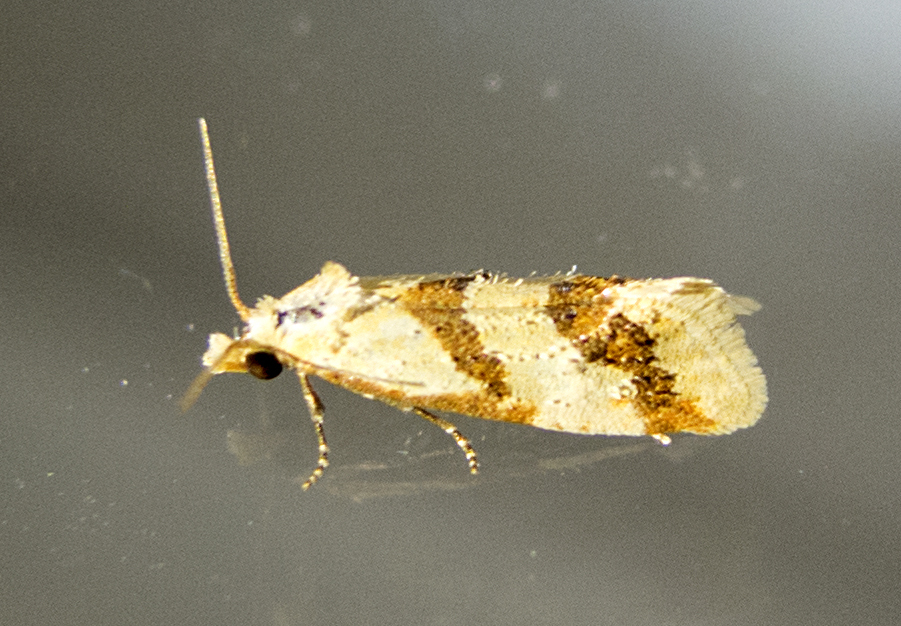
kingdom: Animalia
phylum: Arthropoda
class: Insecta
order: Lepidoptera
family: Tortricidae
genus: Aethes
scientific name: Aethes bilbaensis
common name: Samphire conch
